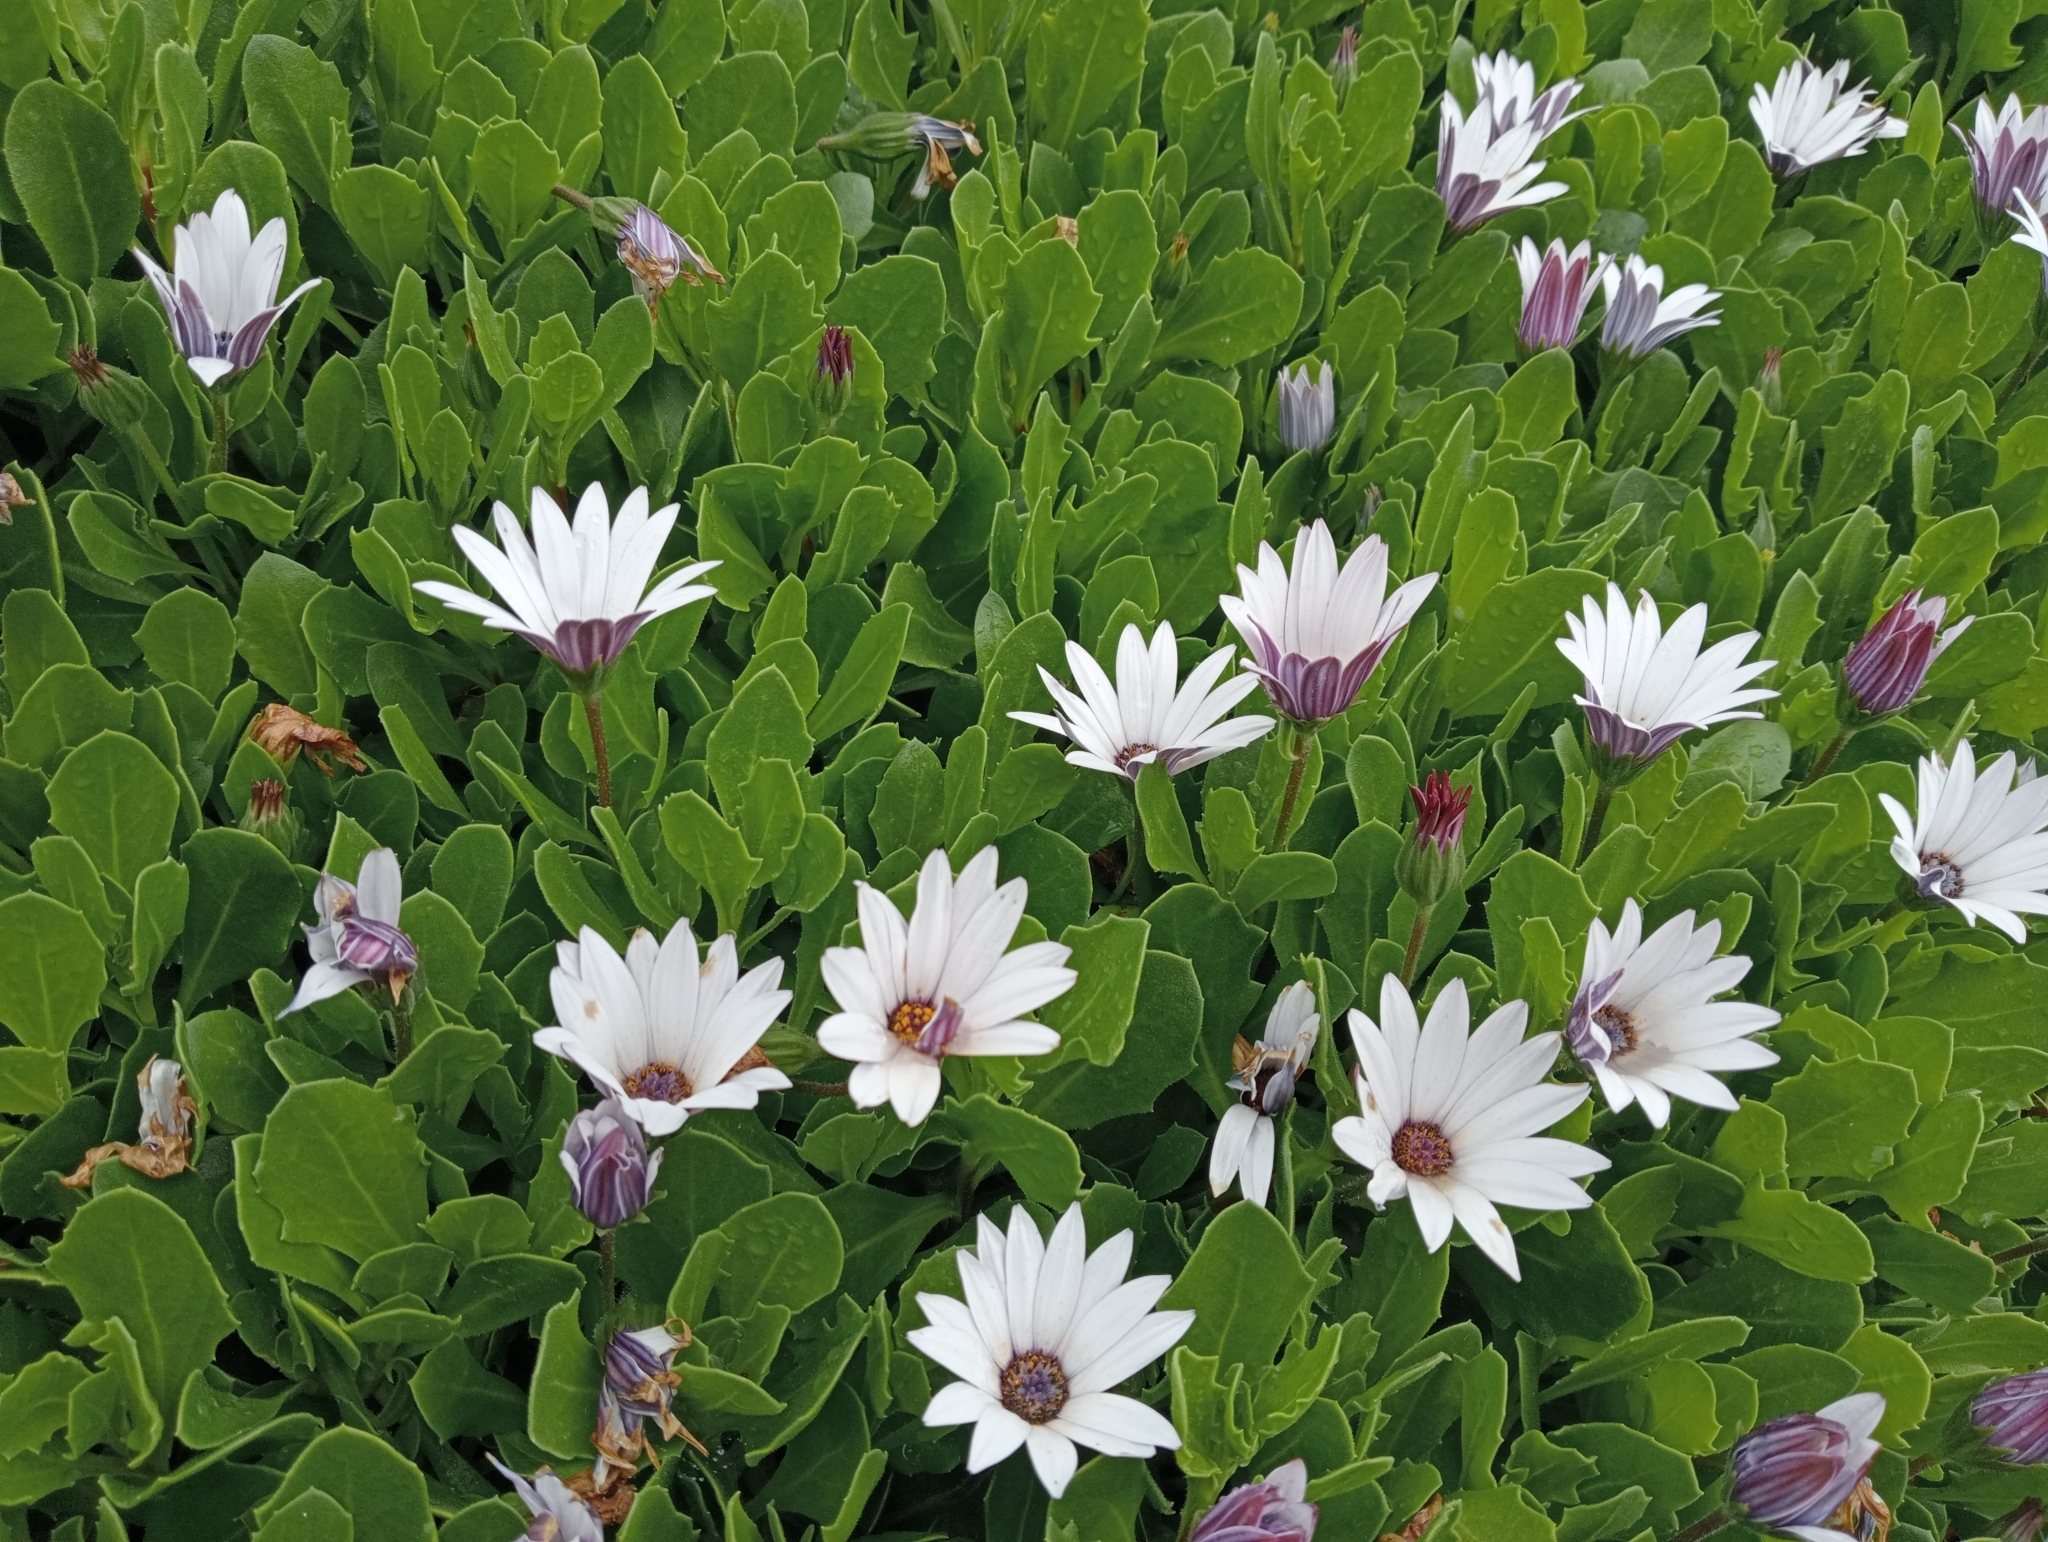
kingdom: Plantae
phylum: Tracheophyta
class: Magnoliopsida
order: Asterales
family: Asteraceae
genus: Dimorphotheca
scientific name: Dimorphotheca fruticosa
